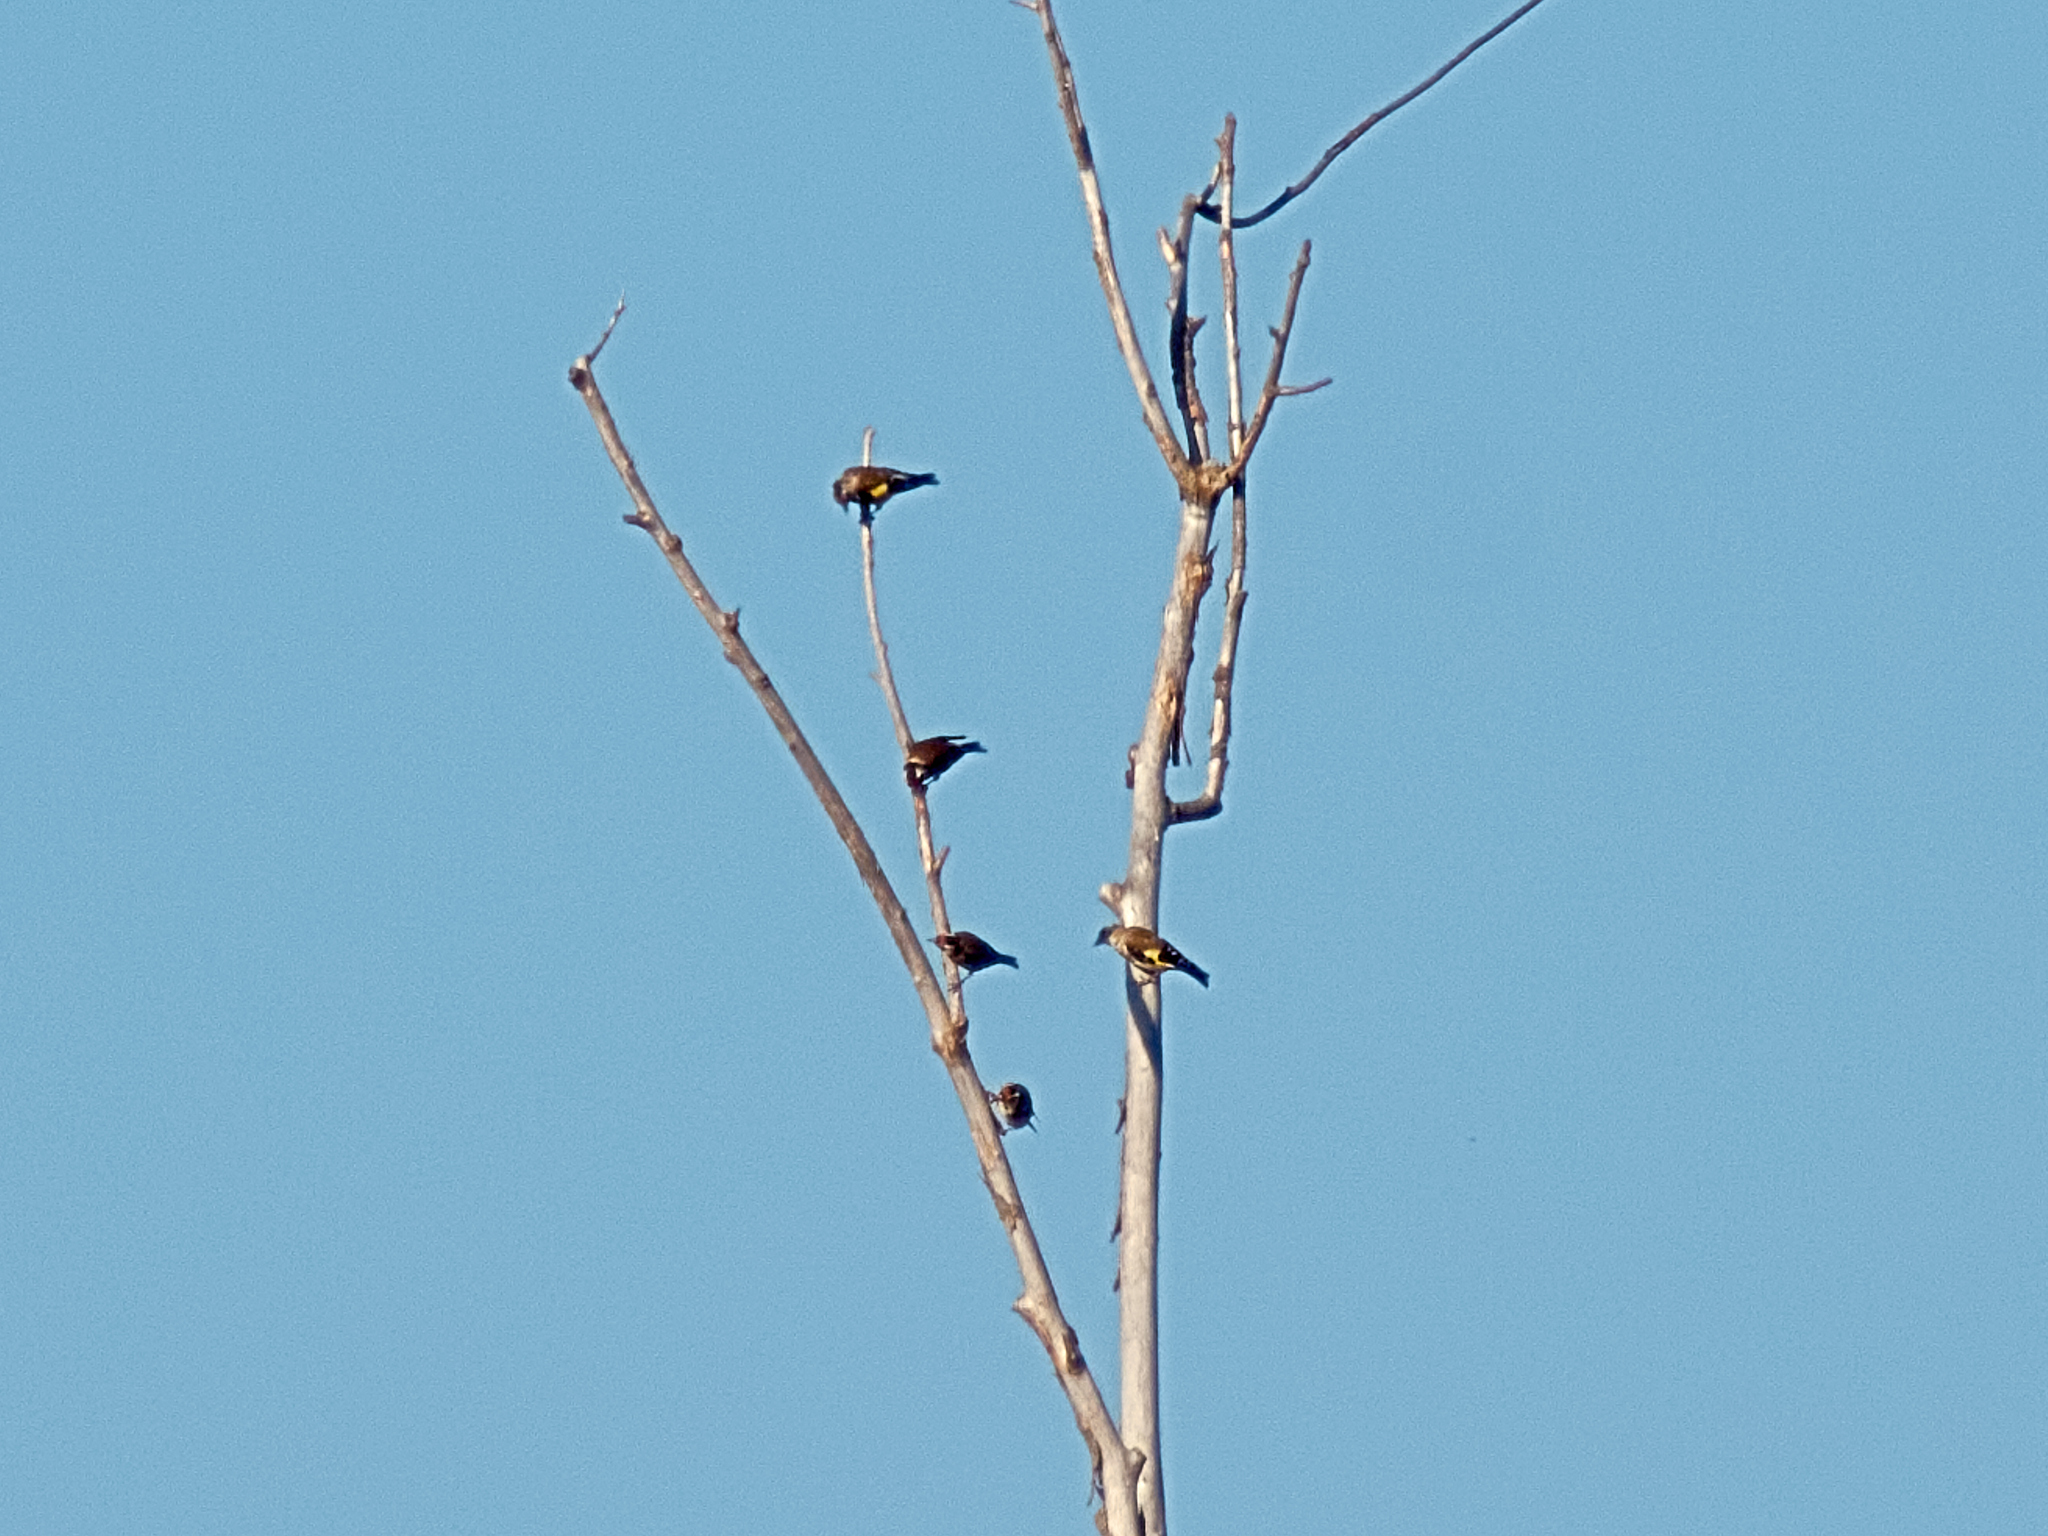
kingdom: Animalia
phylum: Chordata
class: Aves
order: Passeriformes
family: Fringillidae
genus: Carduelis
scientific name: Carduelis carduelis
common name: European goldfinch
